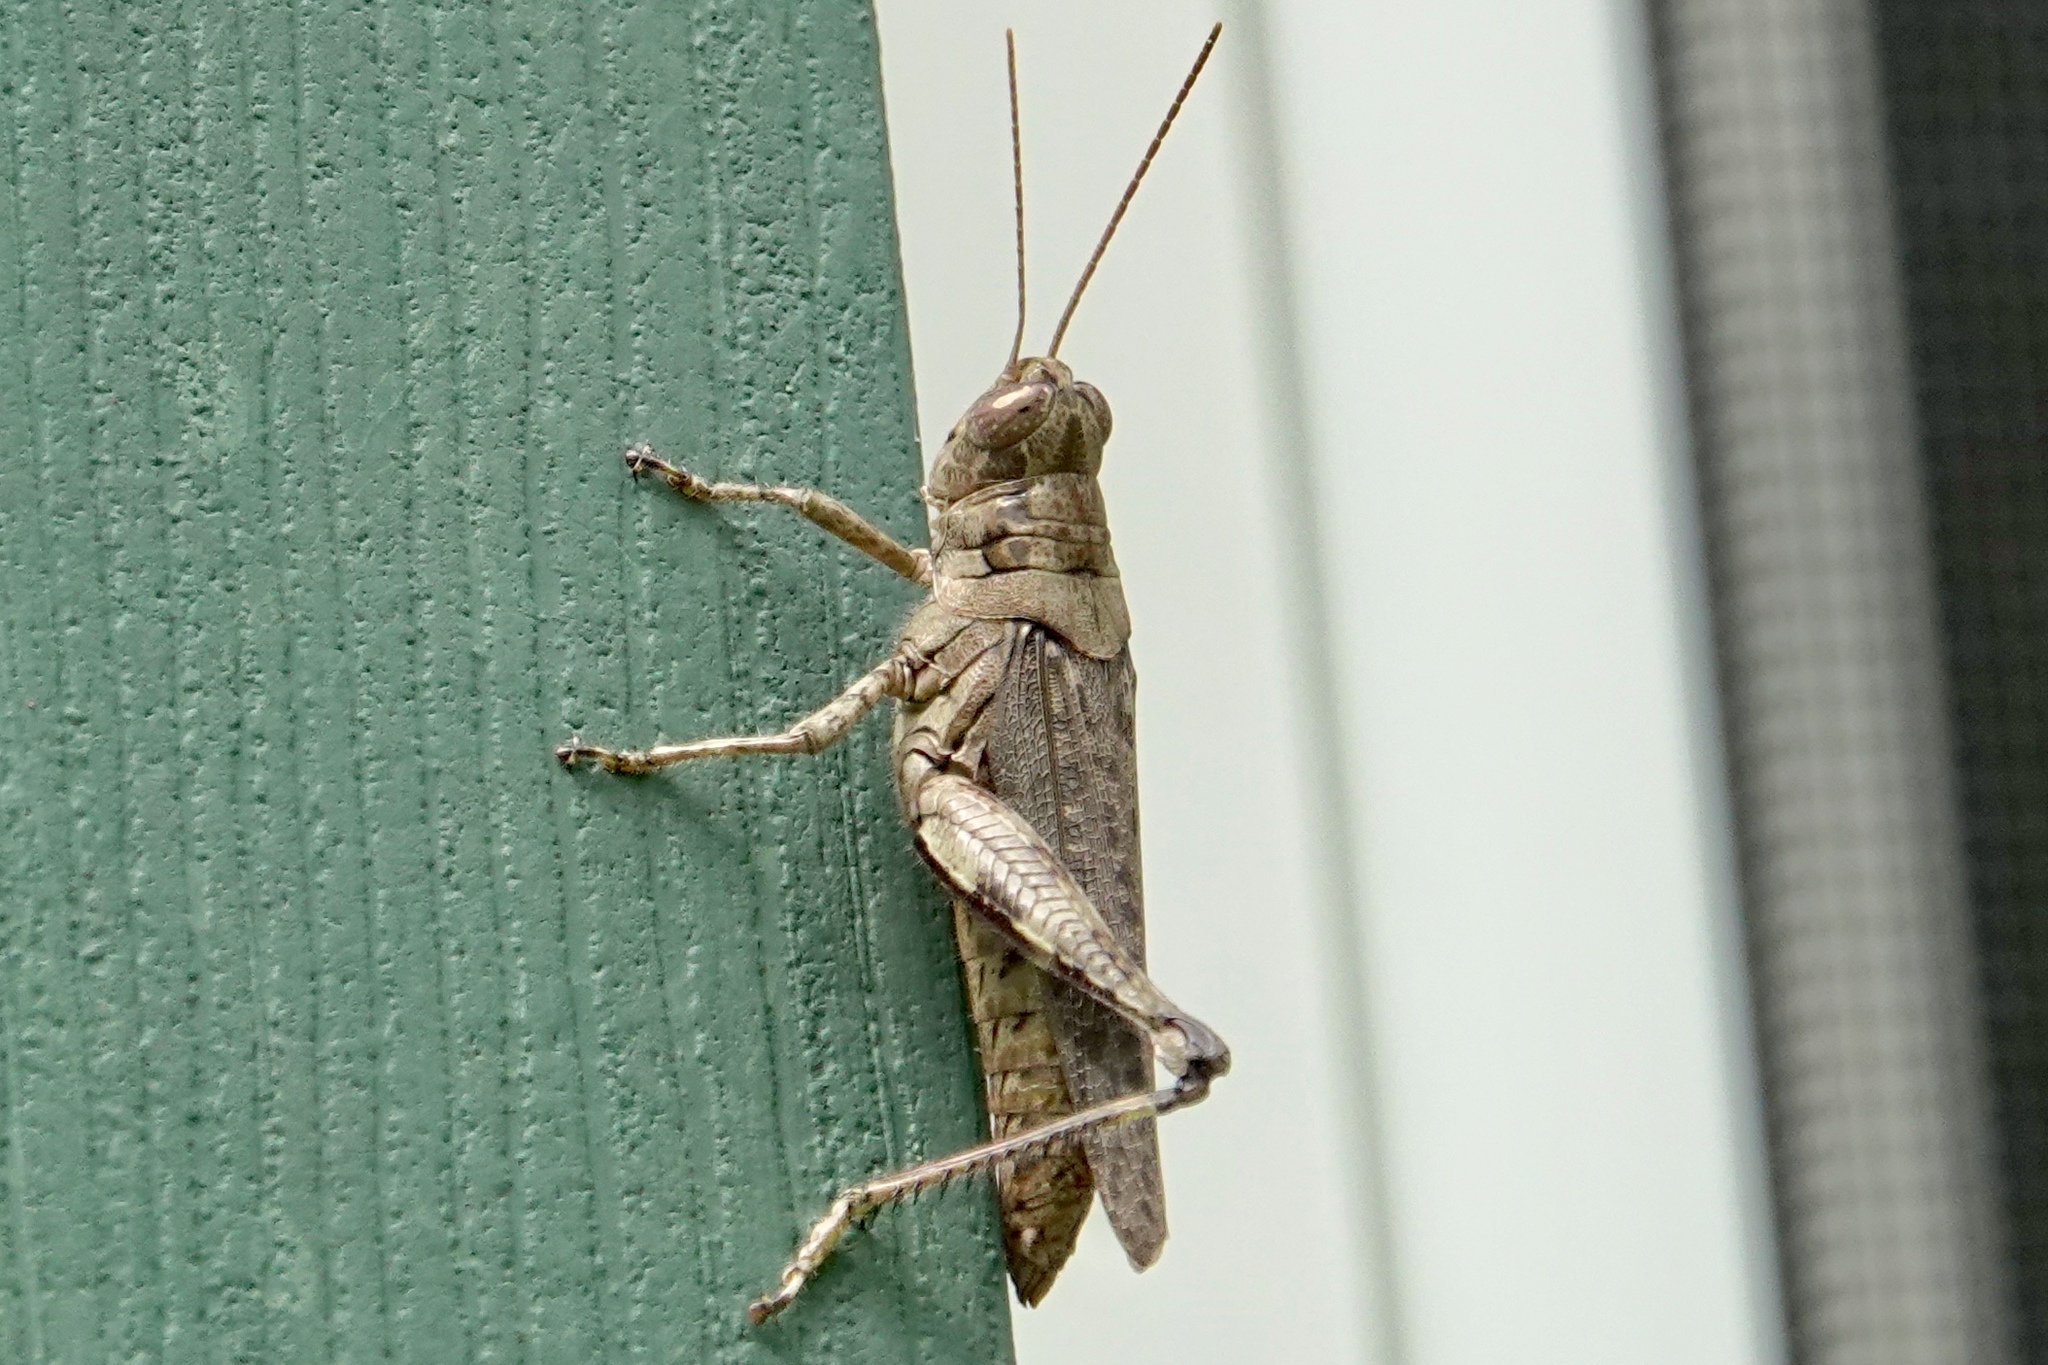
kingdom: Animalia
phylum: Arthropoda
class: Insecta
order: Orthoptera
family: Acrididae
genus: Melanoplus
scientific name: Melanoplus punctulatus
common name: Pine-tree spur-throat grasshopper
